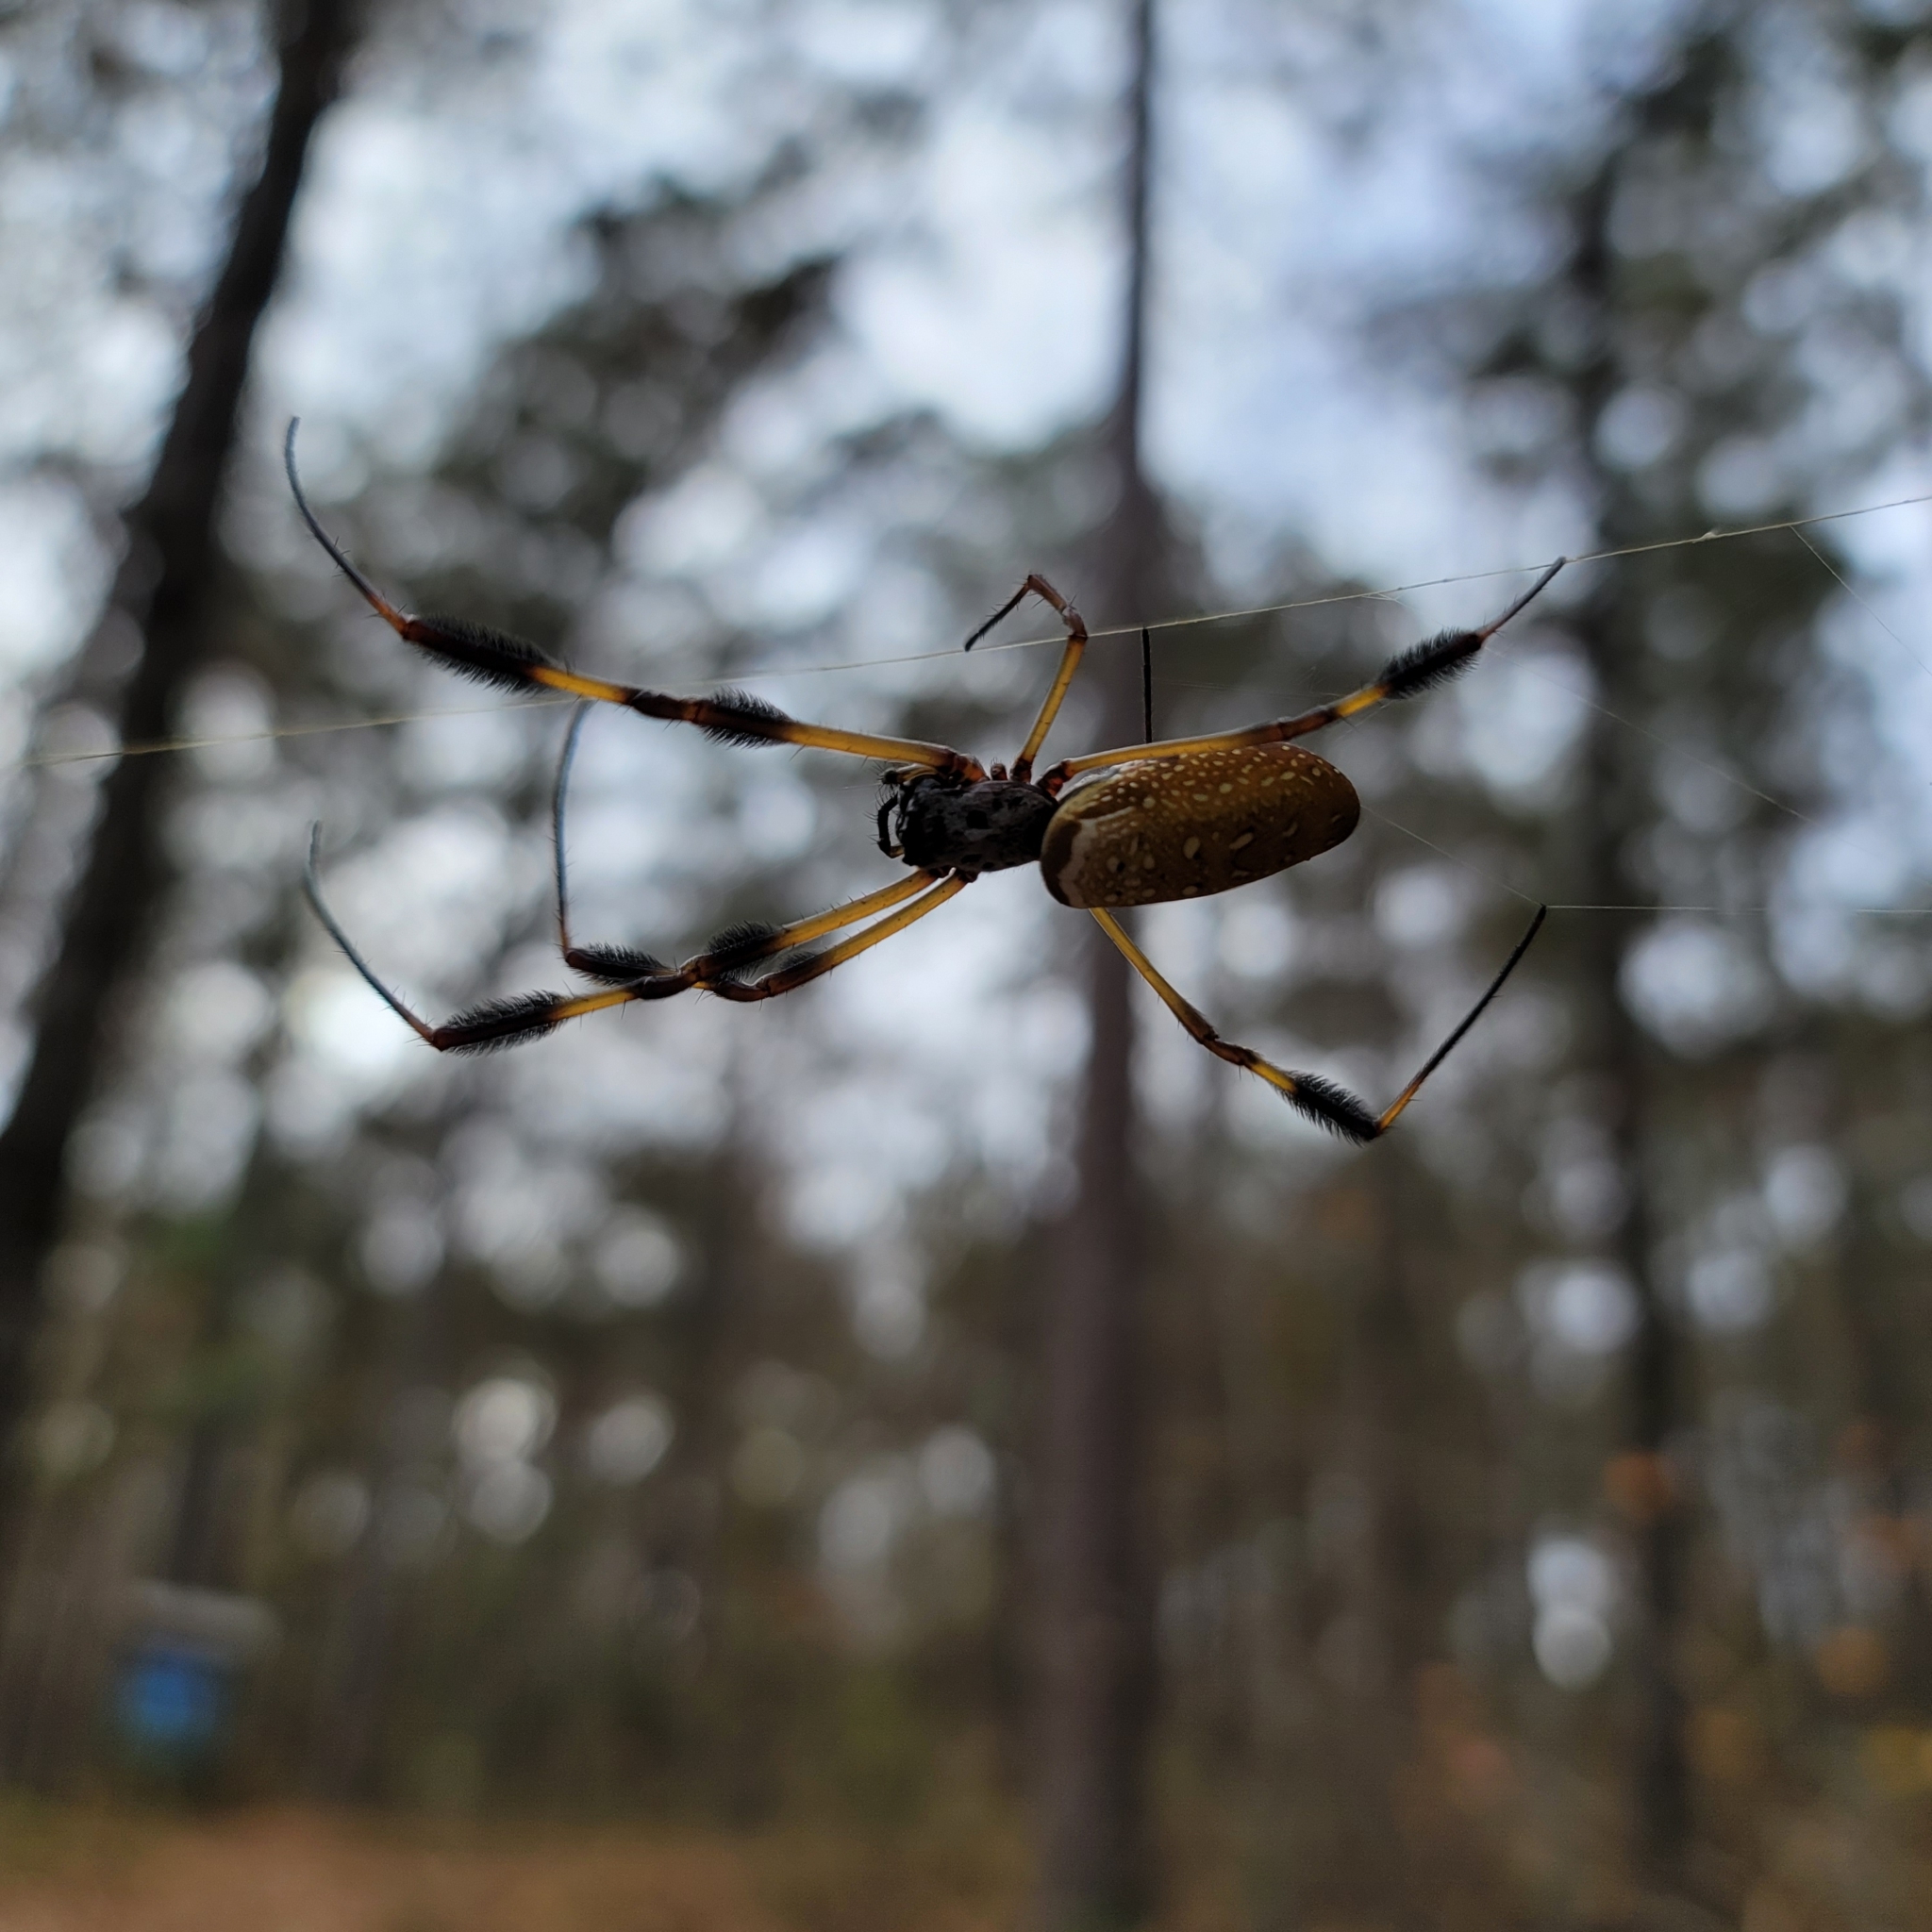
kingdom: Animalia
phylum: Arthropoda
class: Arachnida
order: Araneae
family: Araneidae
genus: Trichonephila
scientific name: Trichonephila clavipes
